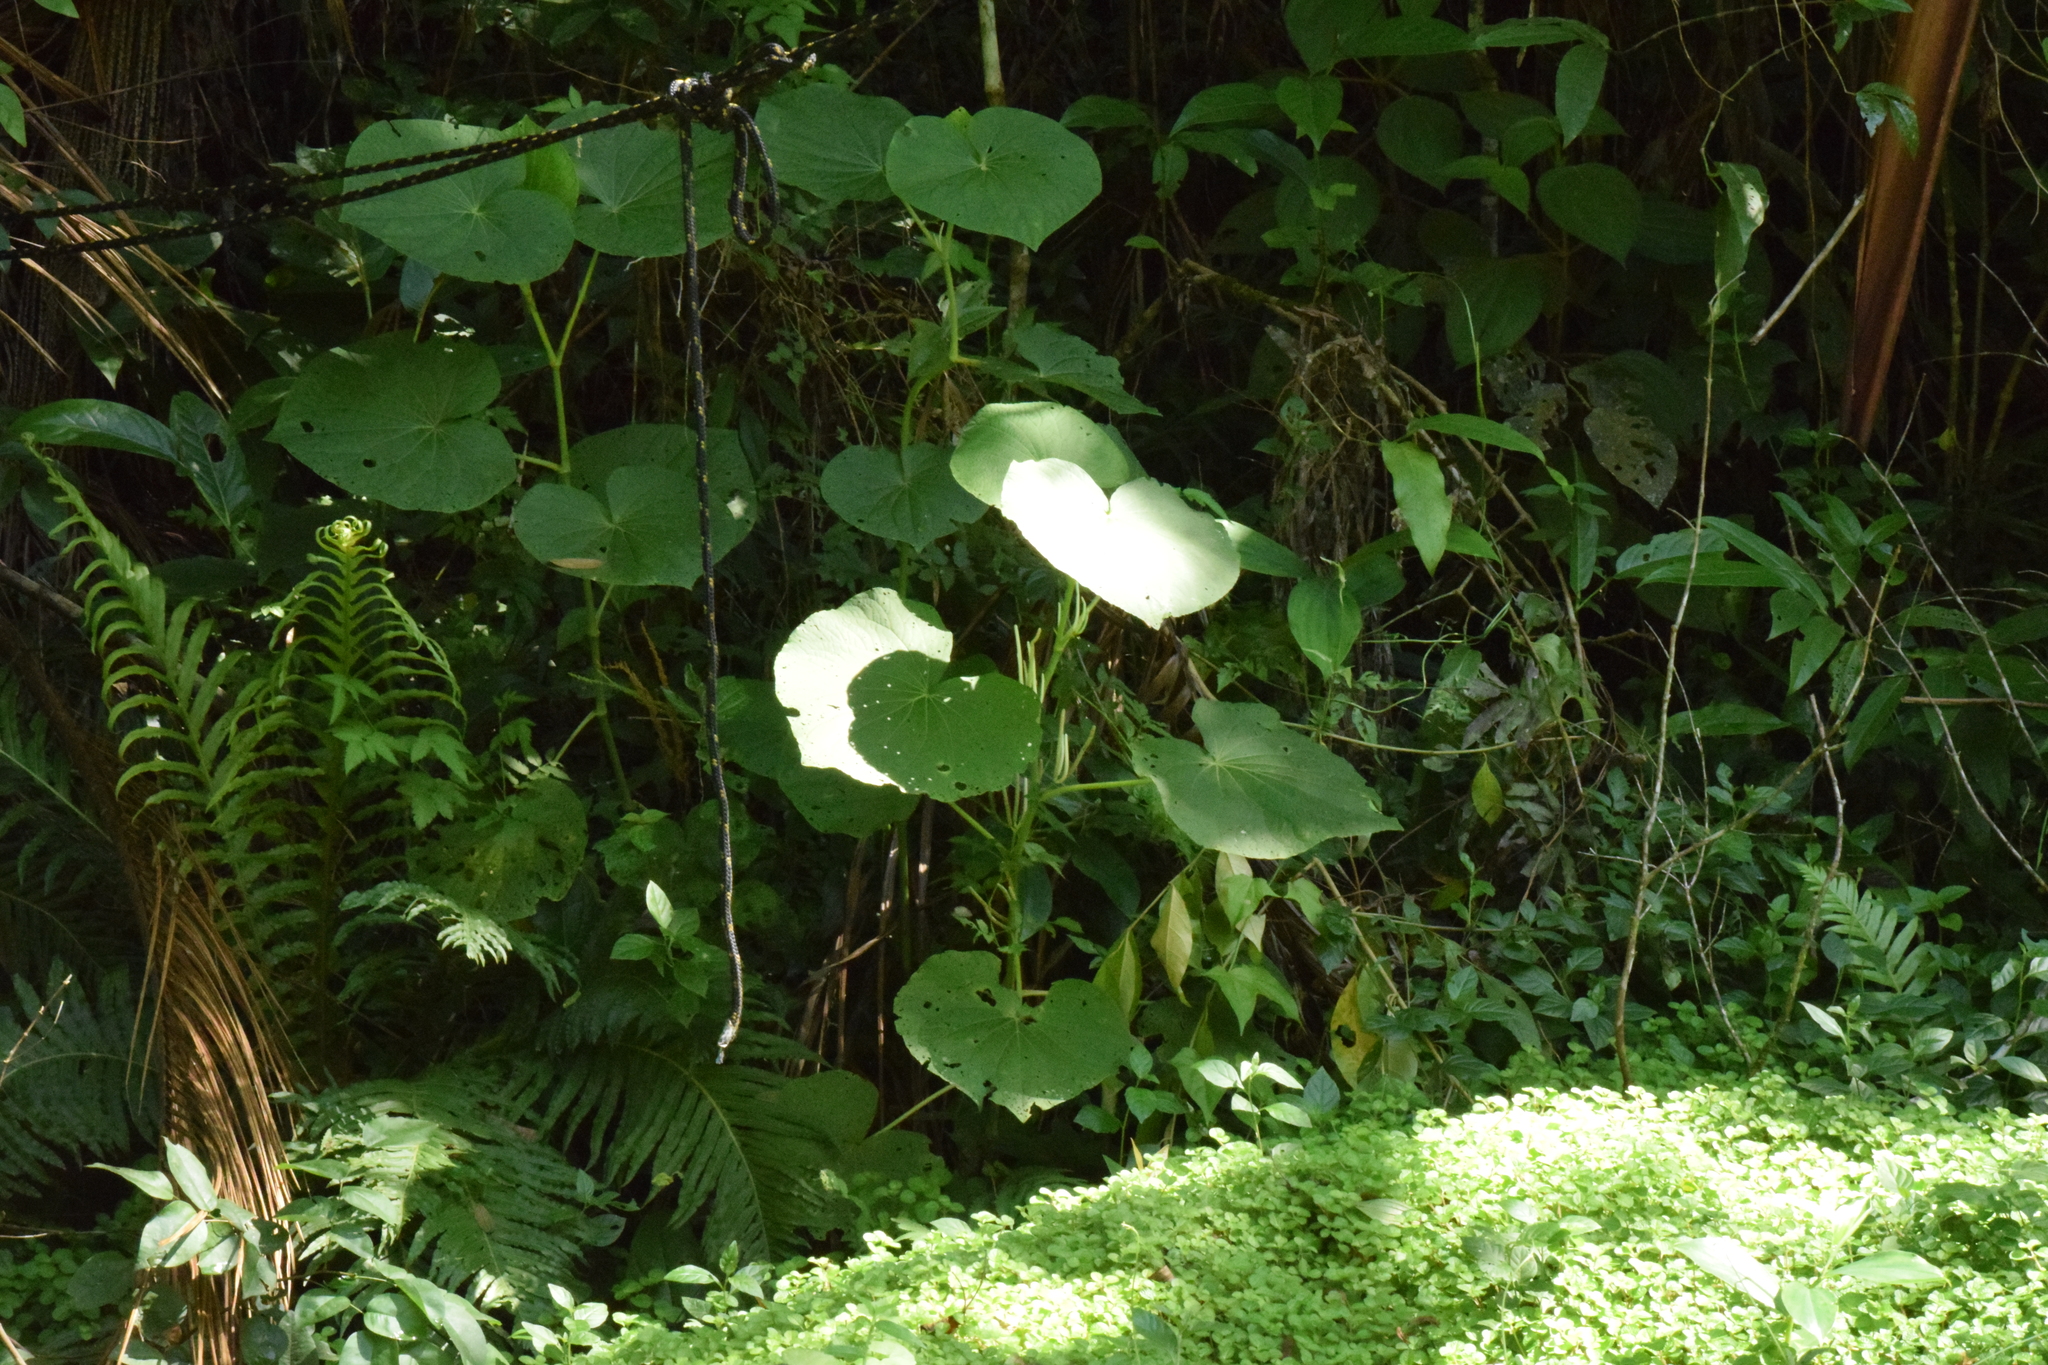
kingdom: Plantae
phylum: Tracheophyta
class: Magnoliopsida
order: Piperales
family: Piperaceae
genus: Piper
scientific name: Piper umbellatum
